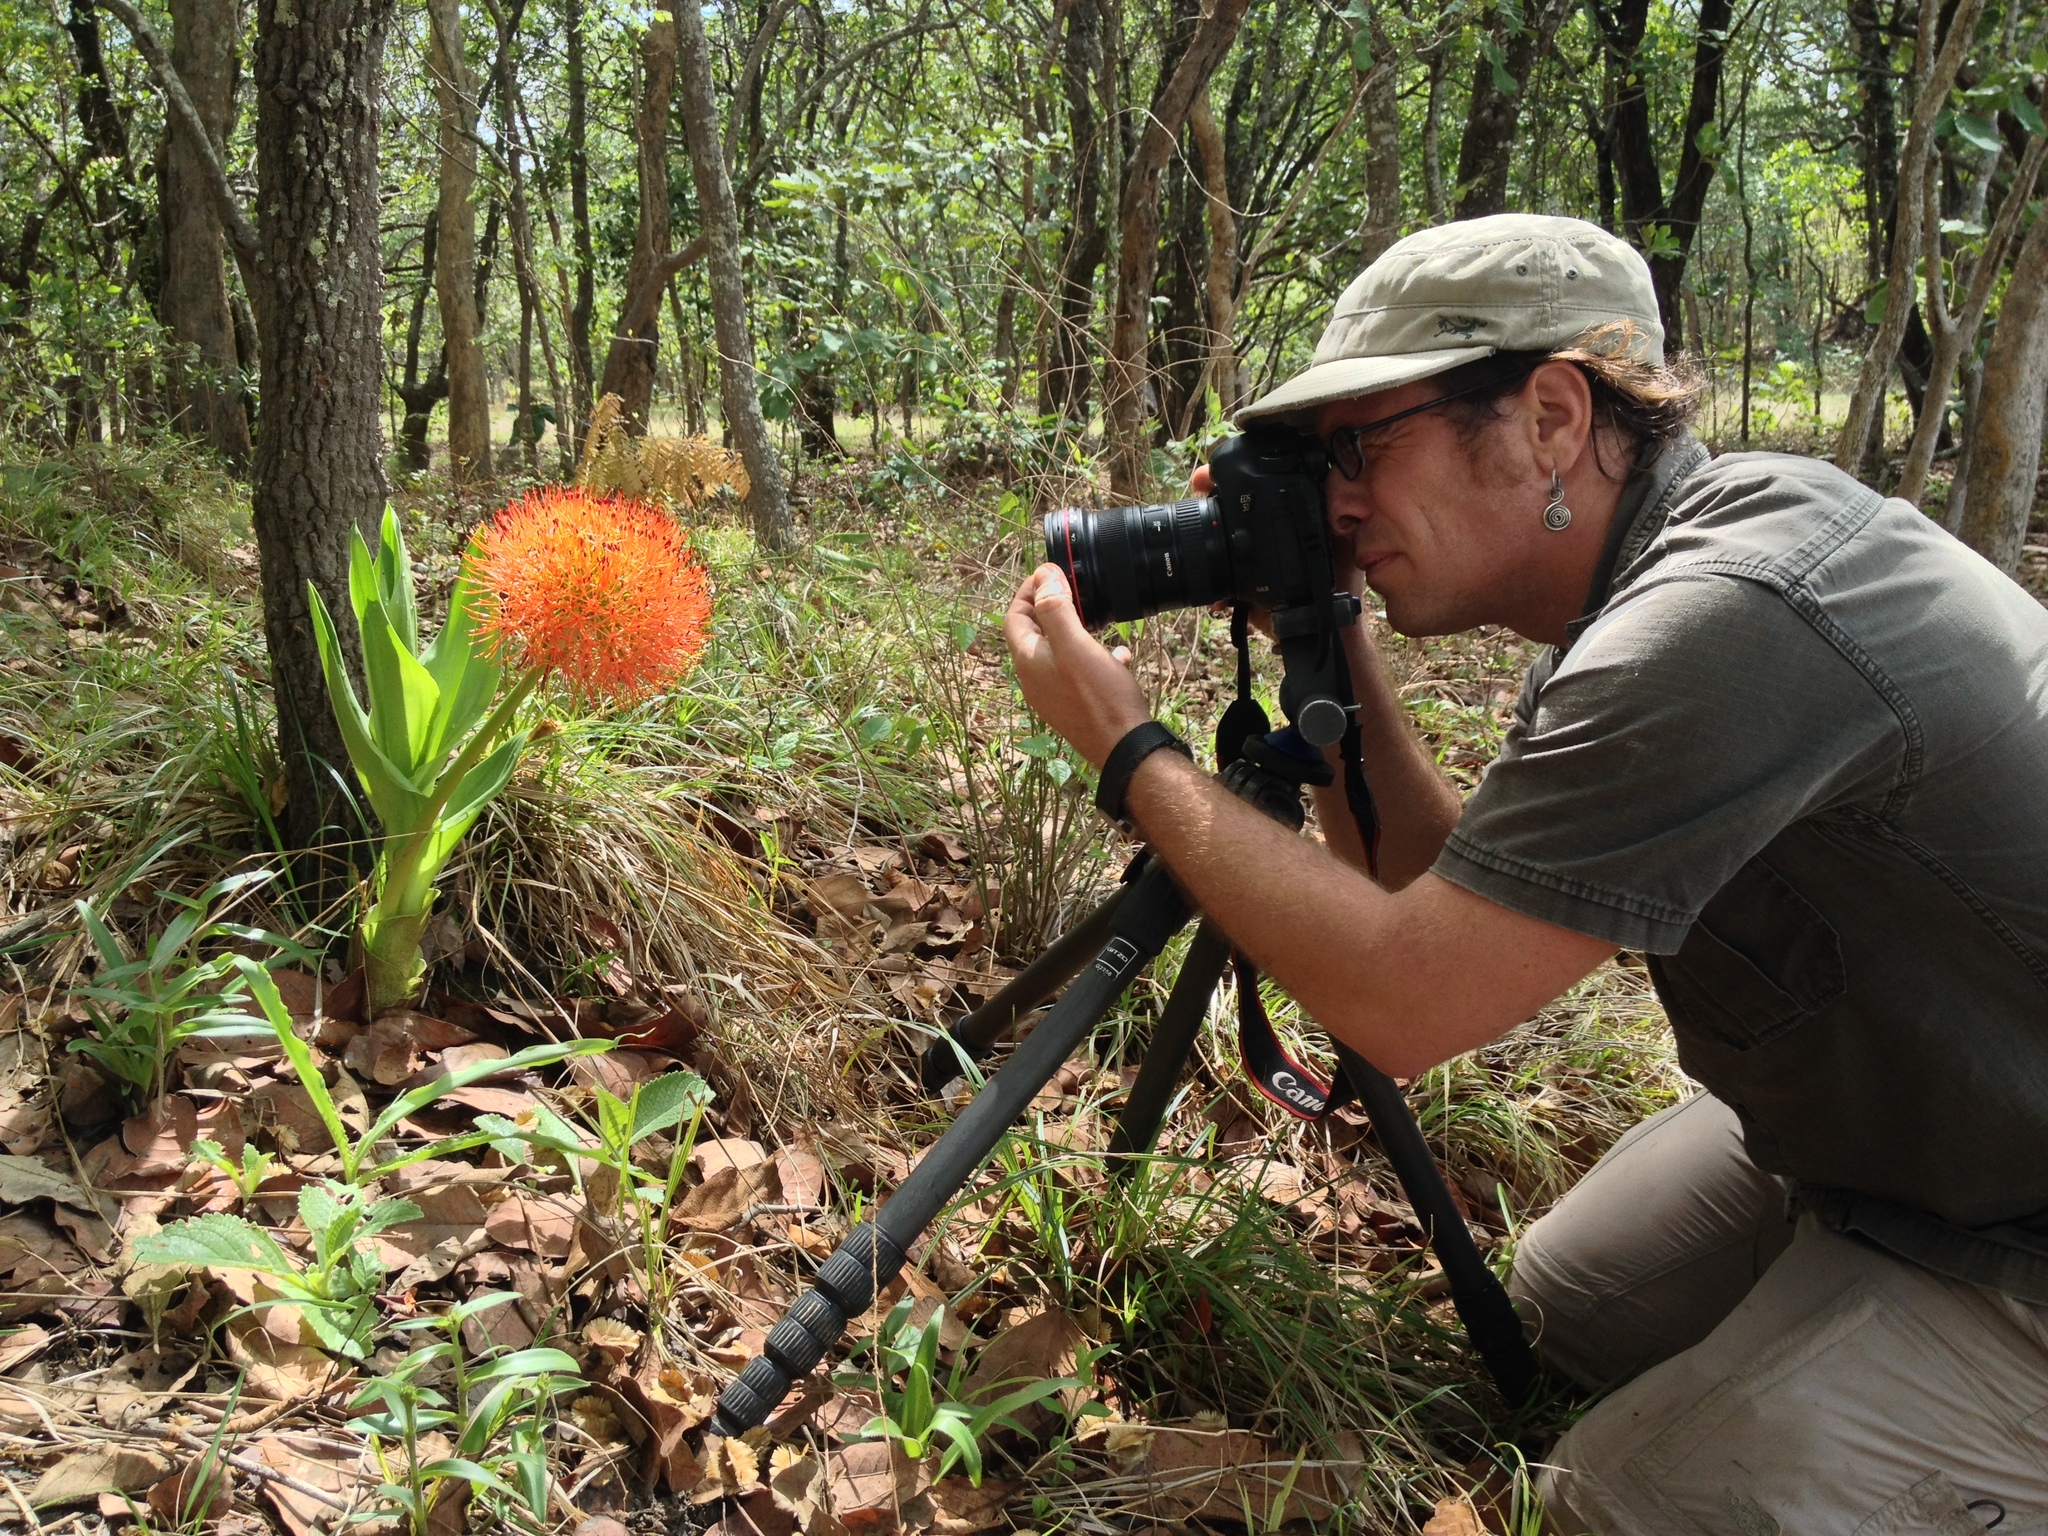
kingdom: Plantae
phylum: Tracheophyta
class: Liliopsida
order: Asparagales
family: Amaryllidaceae
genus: Scadoxus
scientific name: Scadoxus multiflorus
